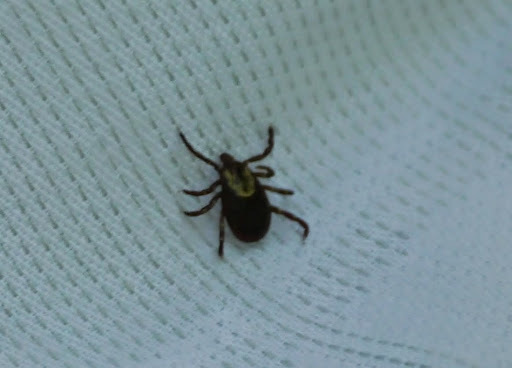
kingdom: Animalia
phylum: Arthropoda
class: Arachnida
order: Ixodida
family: Ixodidae
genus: Dermacentor
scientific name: Dermacentor variabilis
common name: American dog tick
